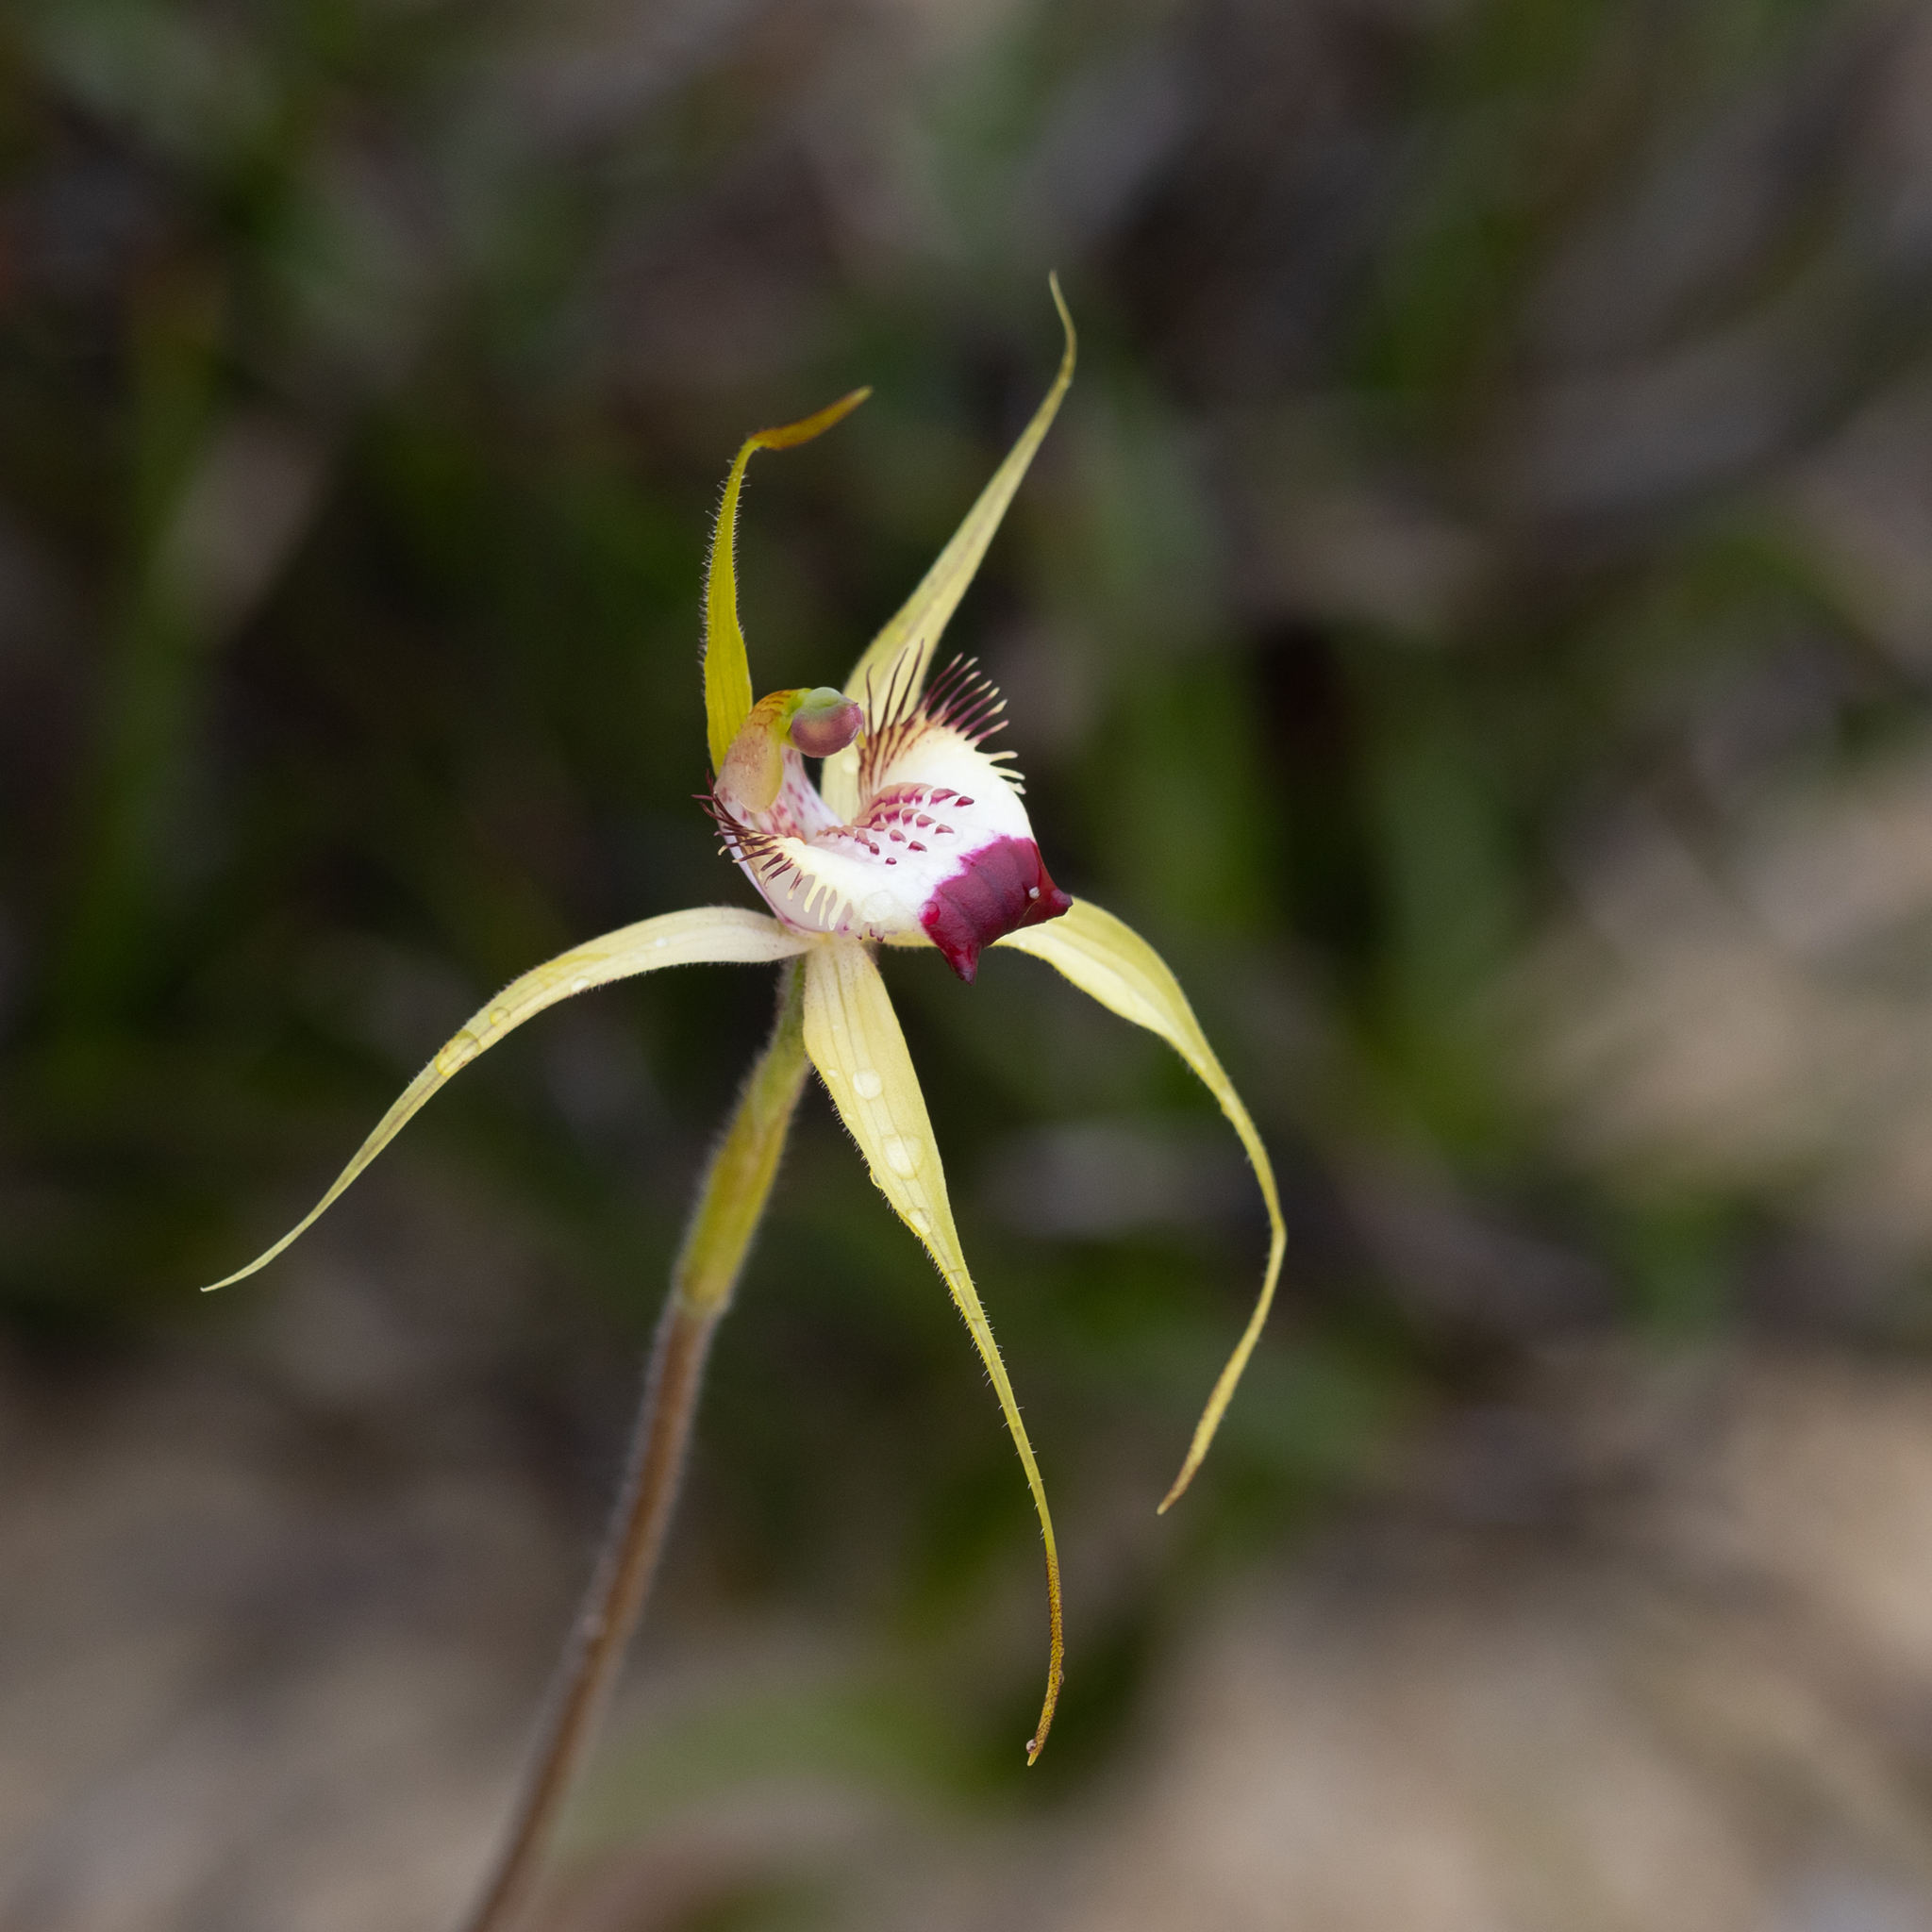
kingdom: Plantae
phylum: Tracheophyta
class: Liliopsida
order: Asparagales
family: Orchidaceae
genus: Caladenia
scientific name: Caladenia granitora
